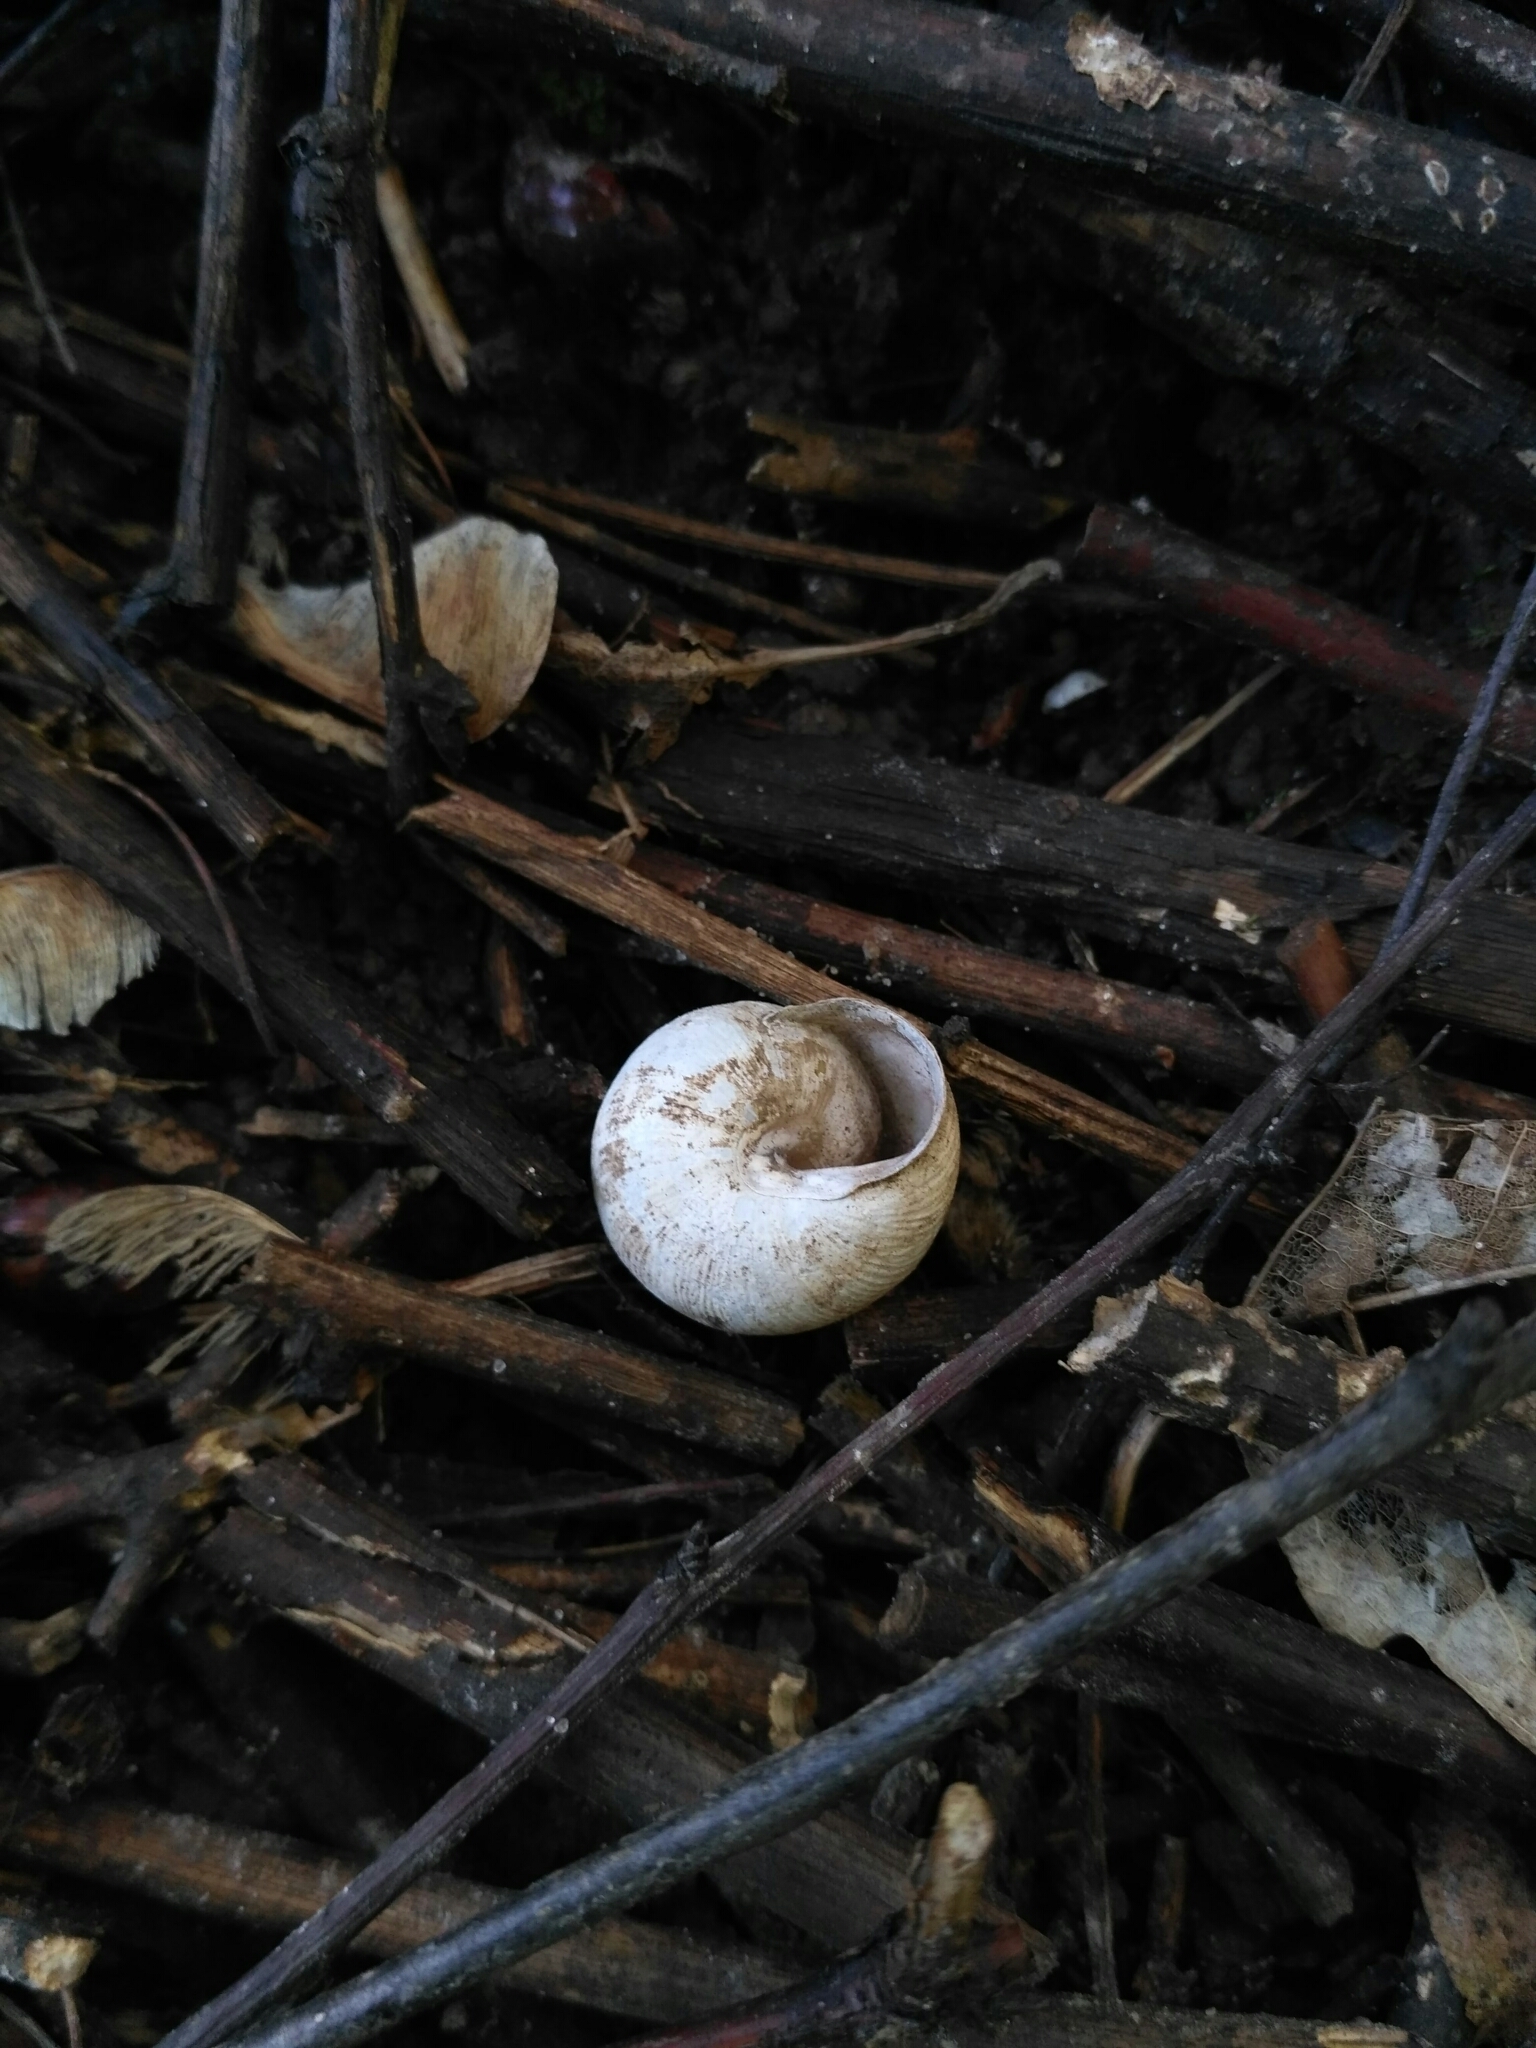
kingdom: Animalia
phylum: Mollusca
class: Gastropoda
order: Stylommatophora
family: Helicidae
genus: Caucasotachea
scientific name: Caucasotachea vindobonensis
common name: European helicid land snail
